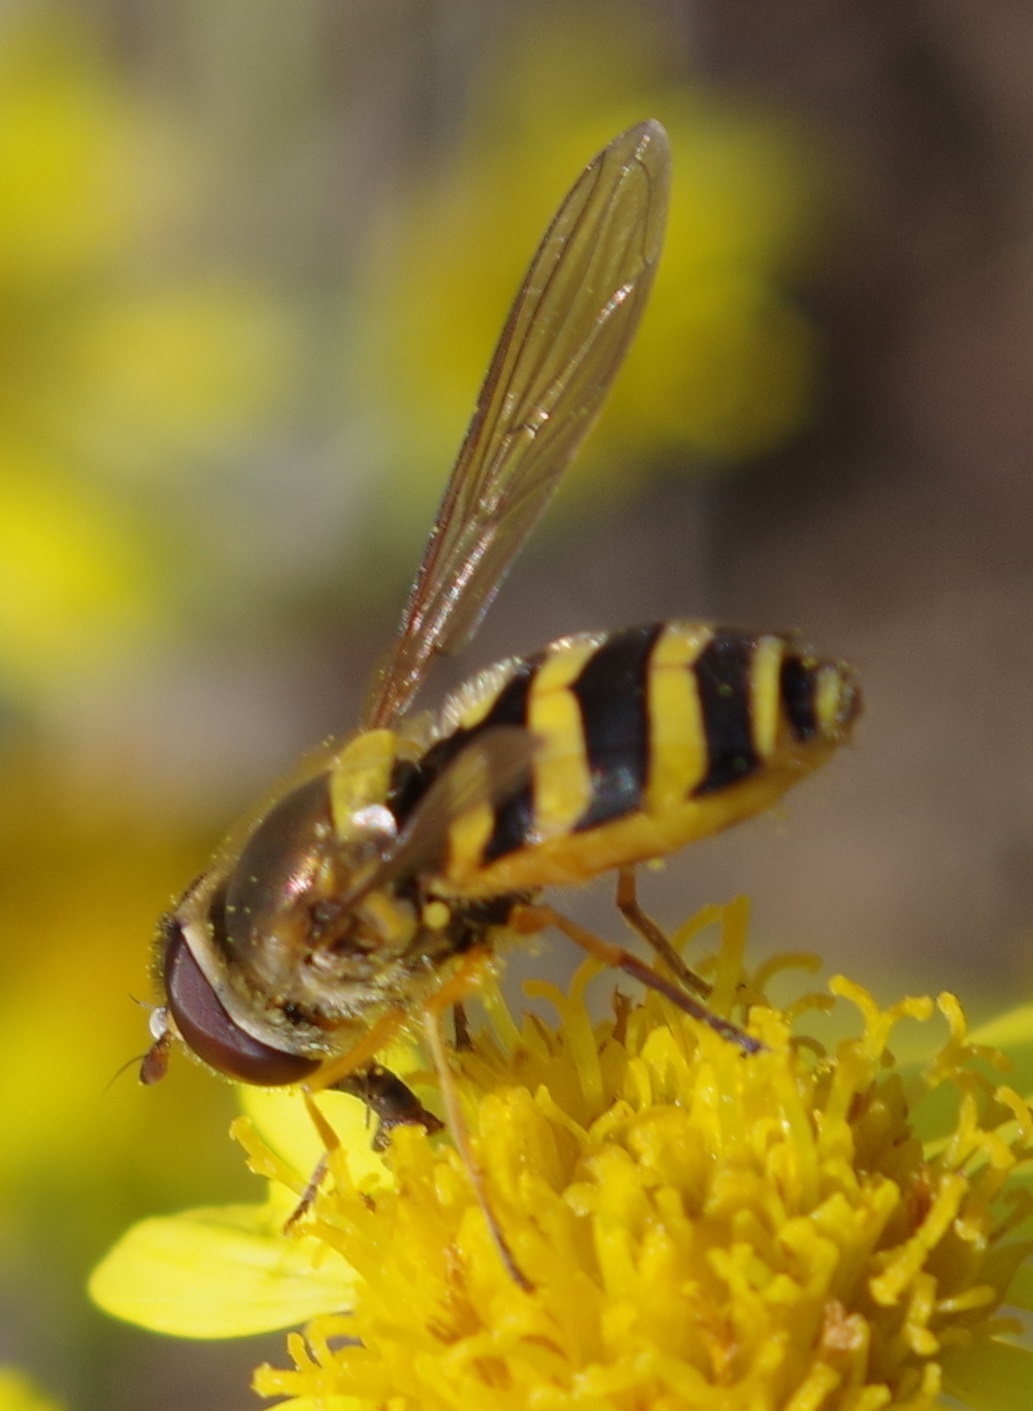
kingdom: Animalia
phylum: Arthropoda
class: Insecta
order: Diptera
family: Syrphidae
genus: Syrphus
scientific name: Syrphus ribesii
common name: Common flower fly
